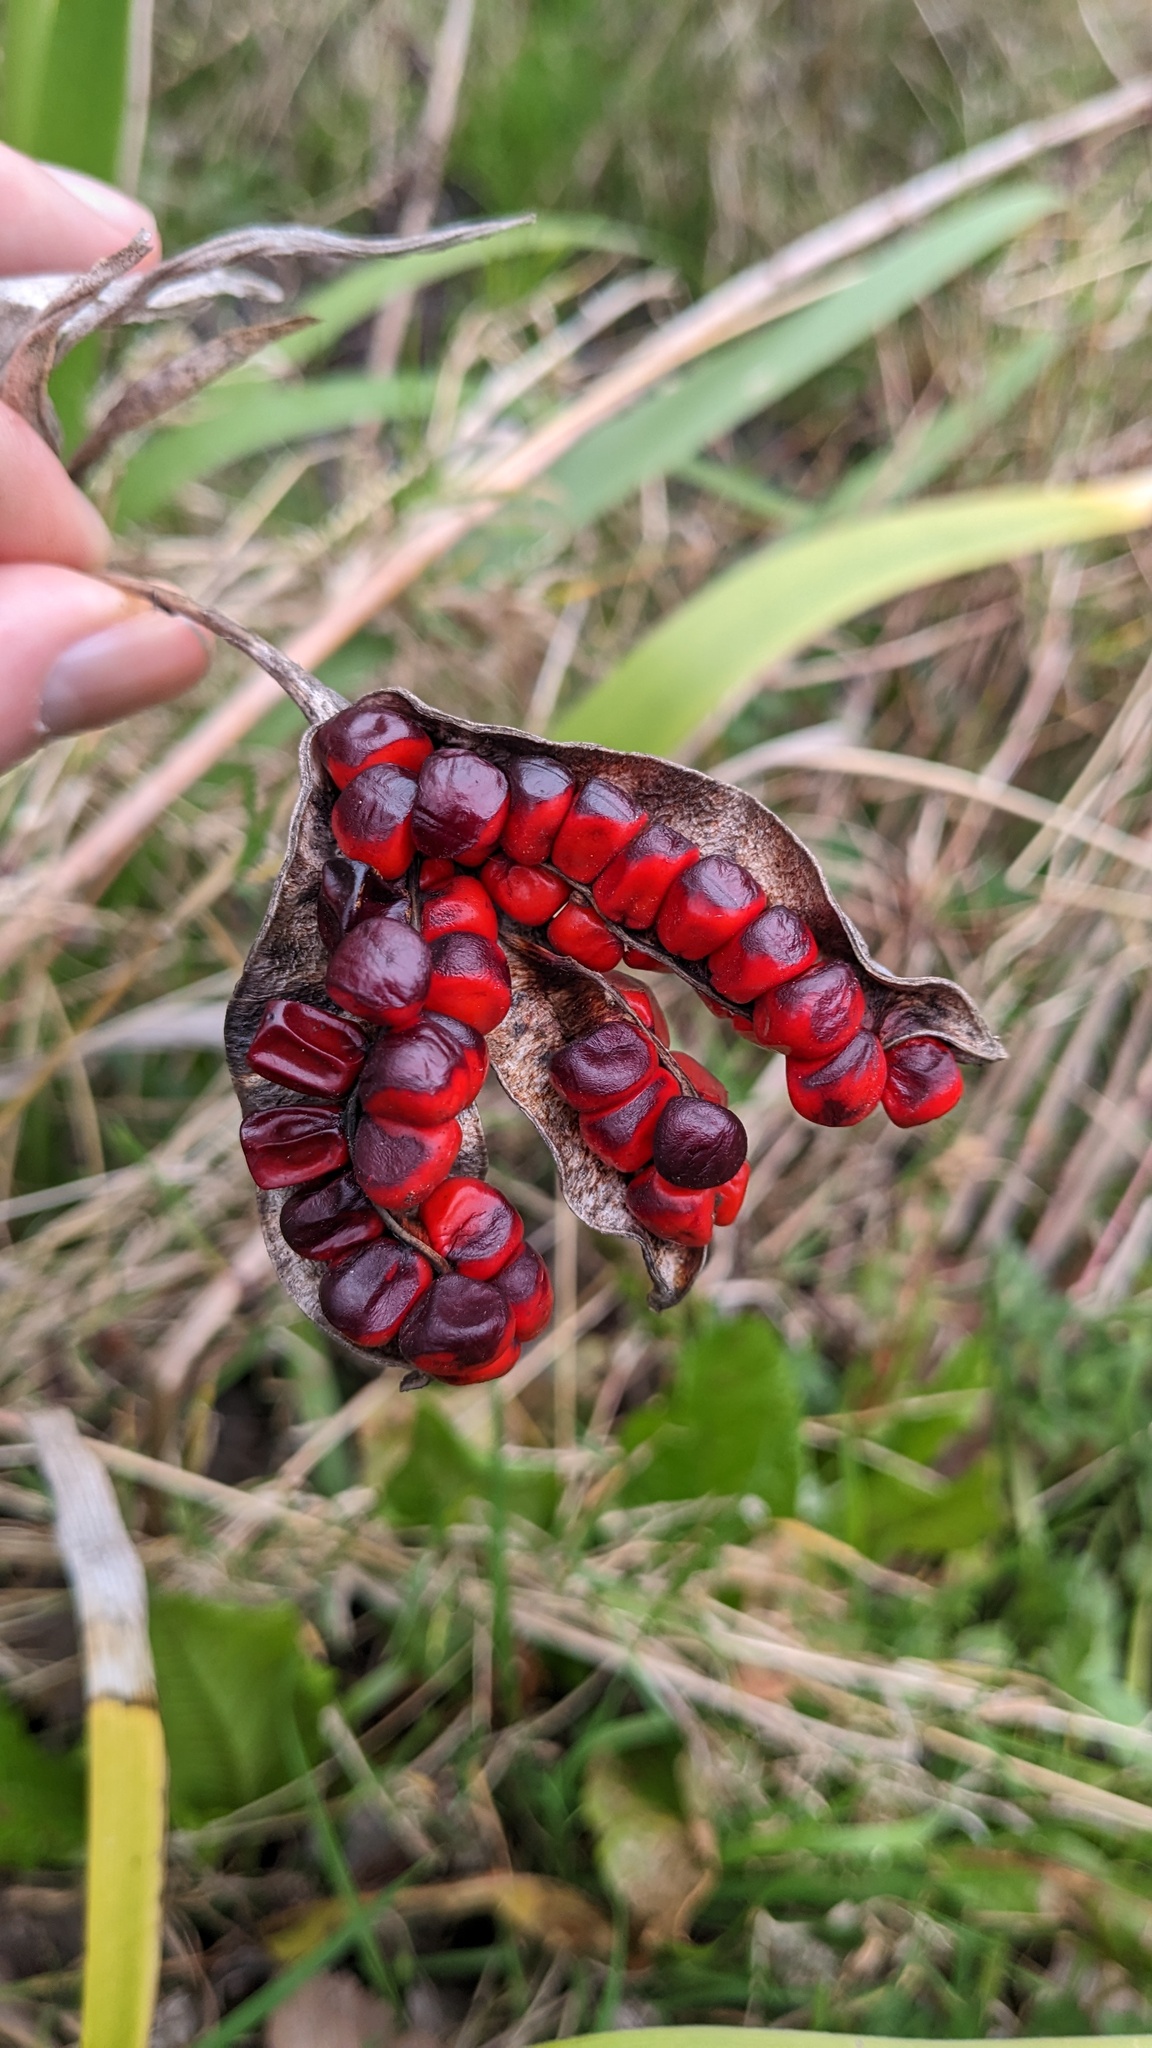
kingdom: Plantae
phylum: Tracheophyta
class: Liliopsida
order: Asparagales
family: Iridaceae
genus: Iris
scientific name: Iris foetidissima
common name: Stinking iris
